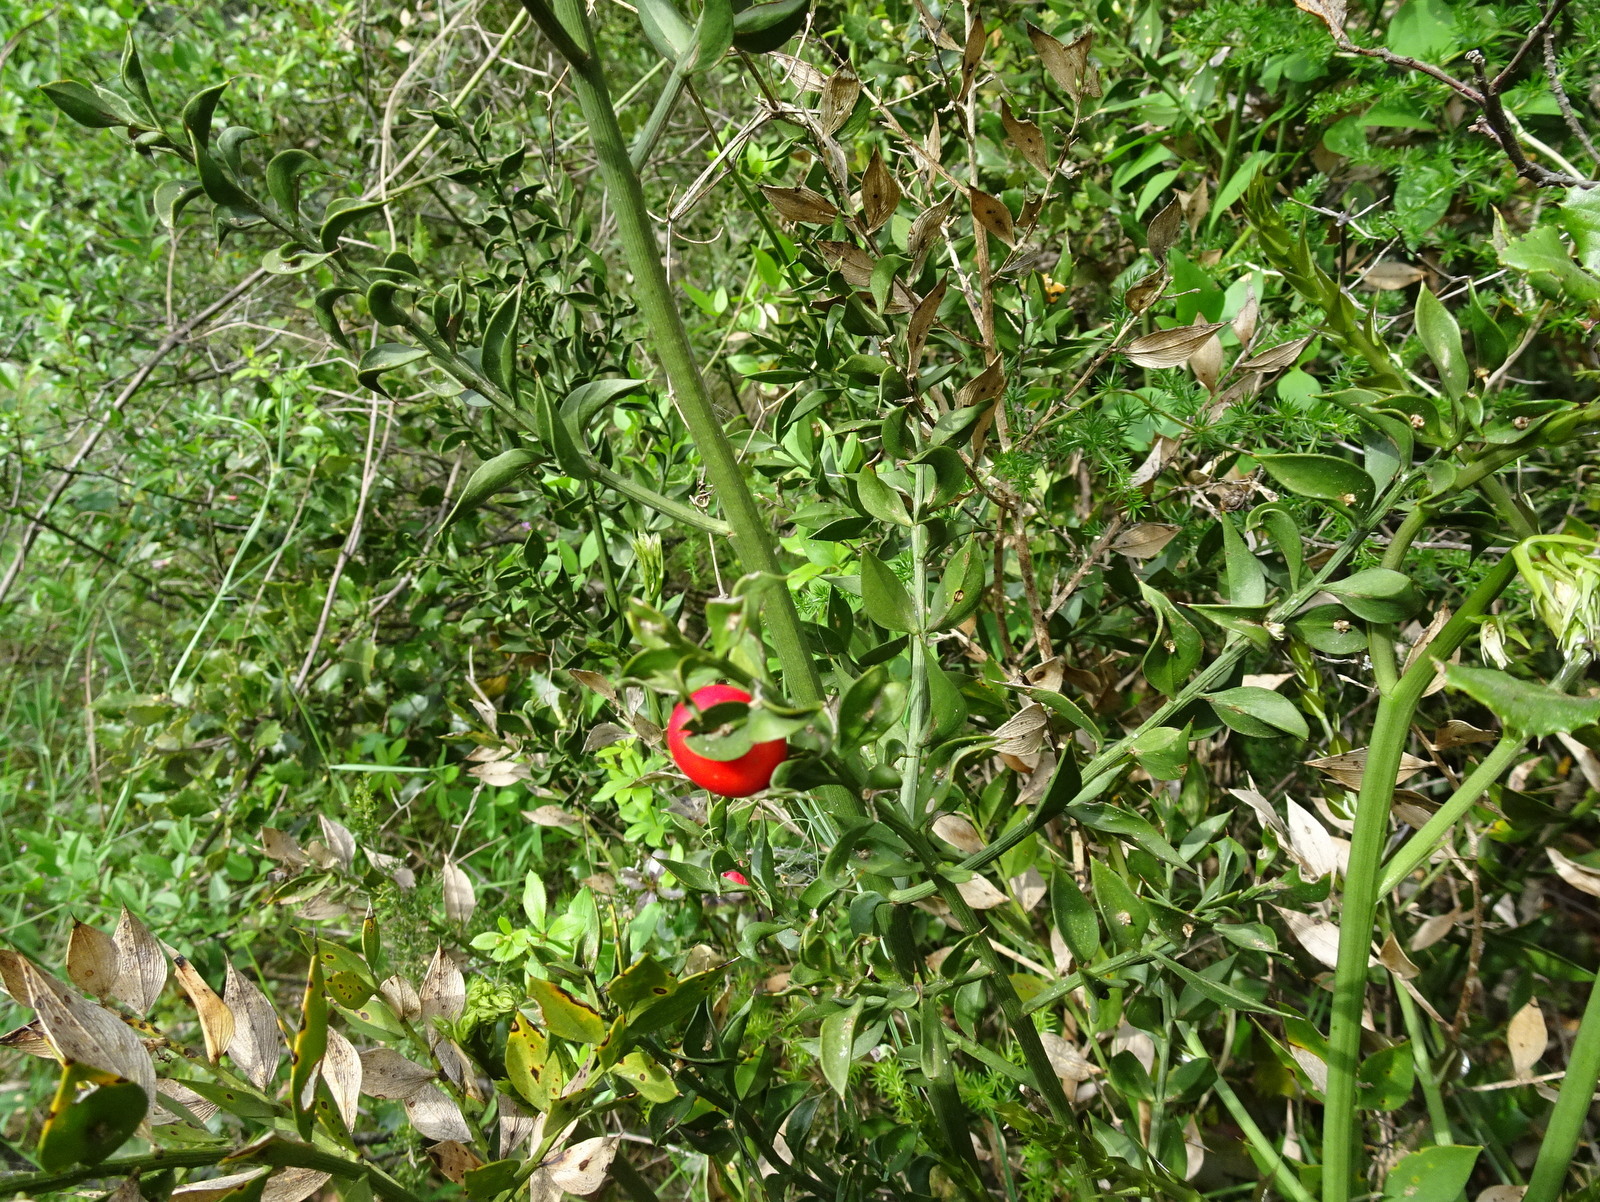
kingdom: Plantae
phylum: Tracheophyta
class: Liliopsida
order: Asparagales
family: Asparagaceae
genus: Ruscus
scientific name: Ruscus aculeatus
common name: Butcher's-broom
